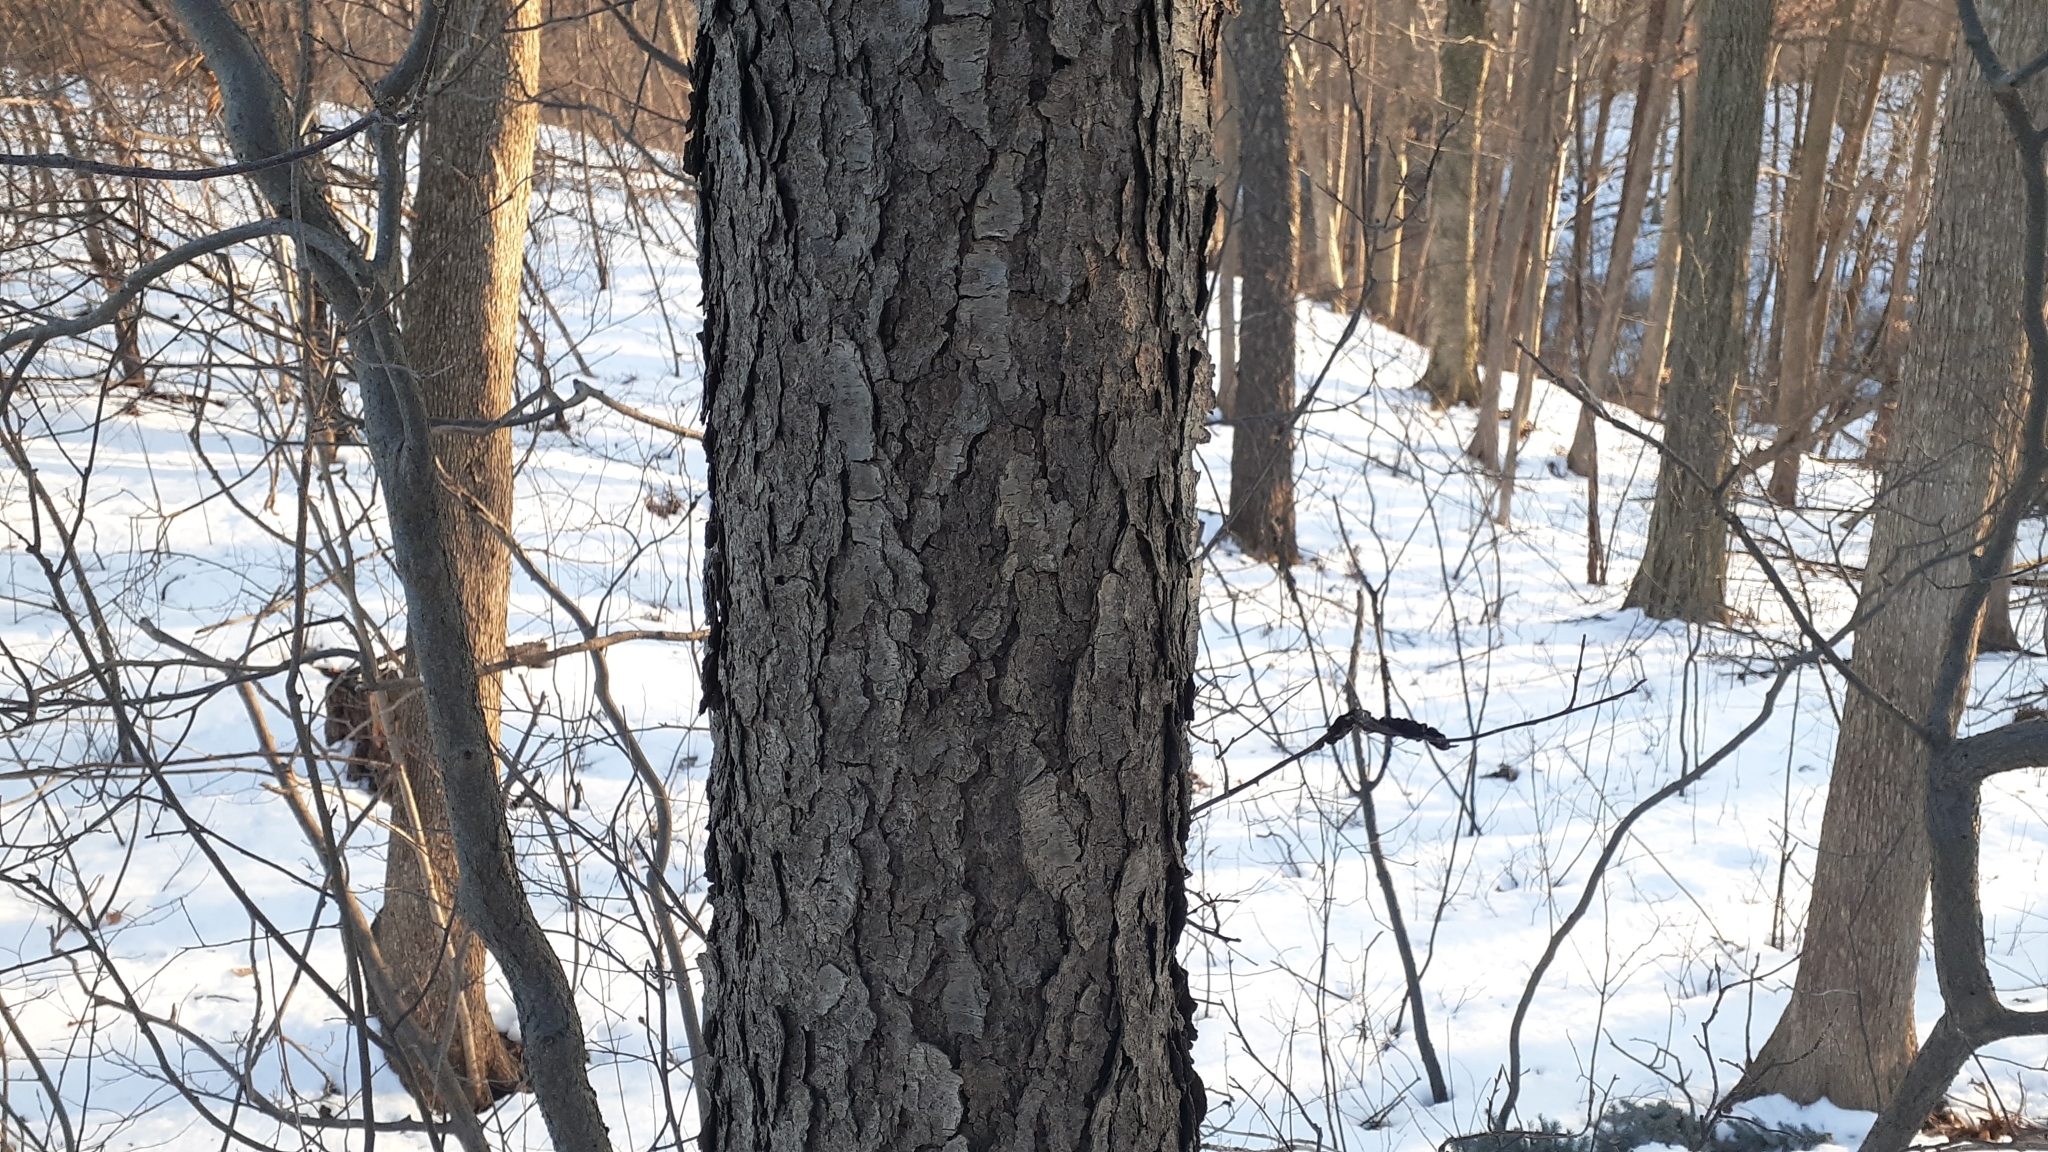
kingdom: Plantae
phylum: Tracheophyta
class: Magnoliopsida
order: Rosales
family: Rosaceae
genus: Prunus
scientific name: Prunus serotina
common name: Black cherry
